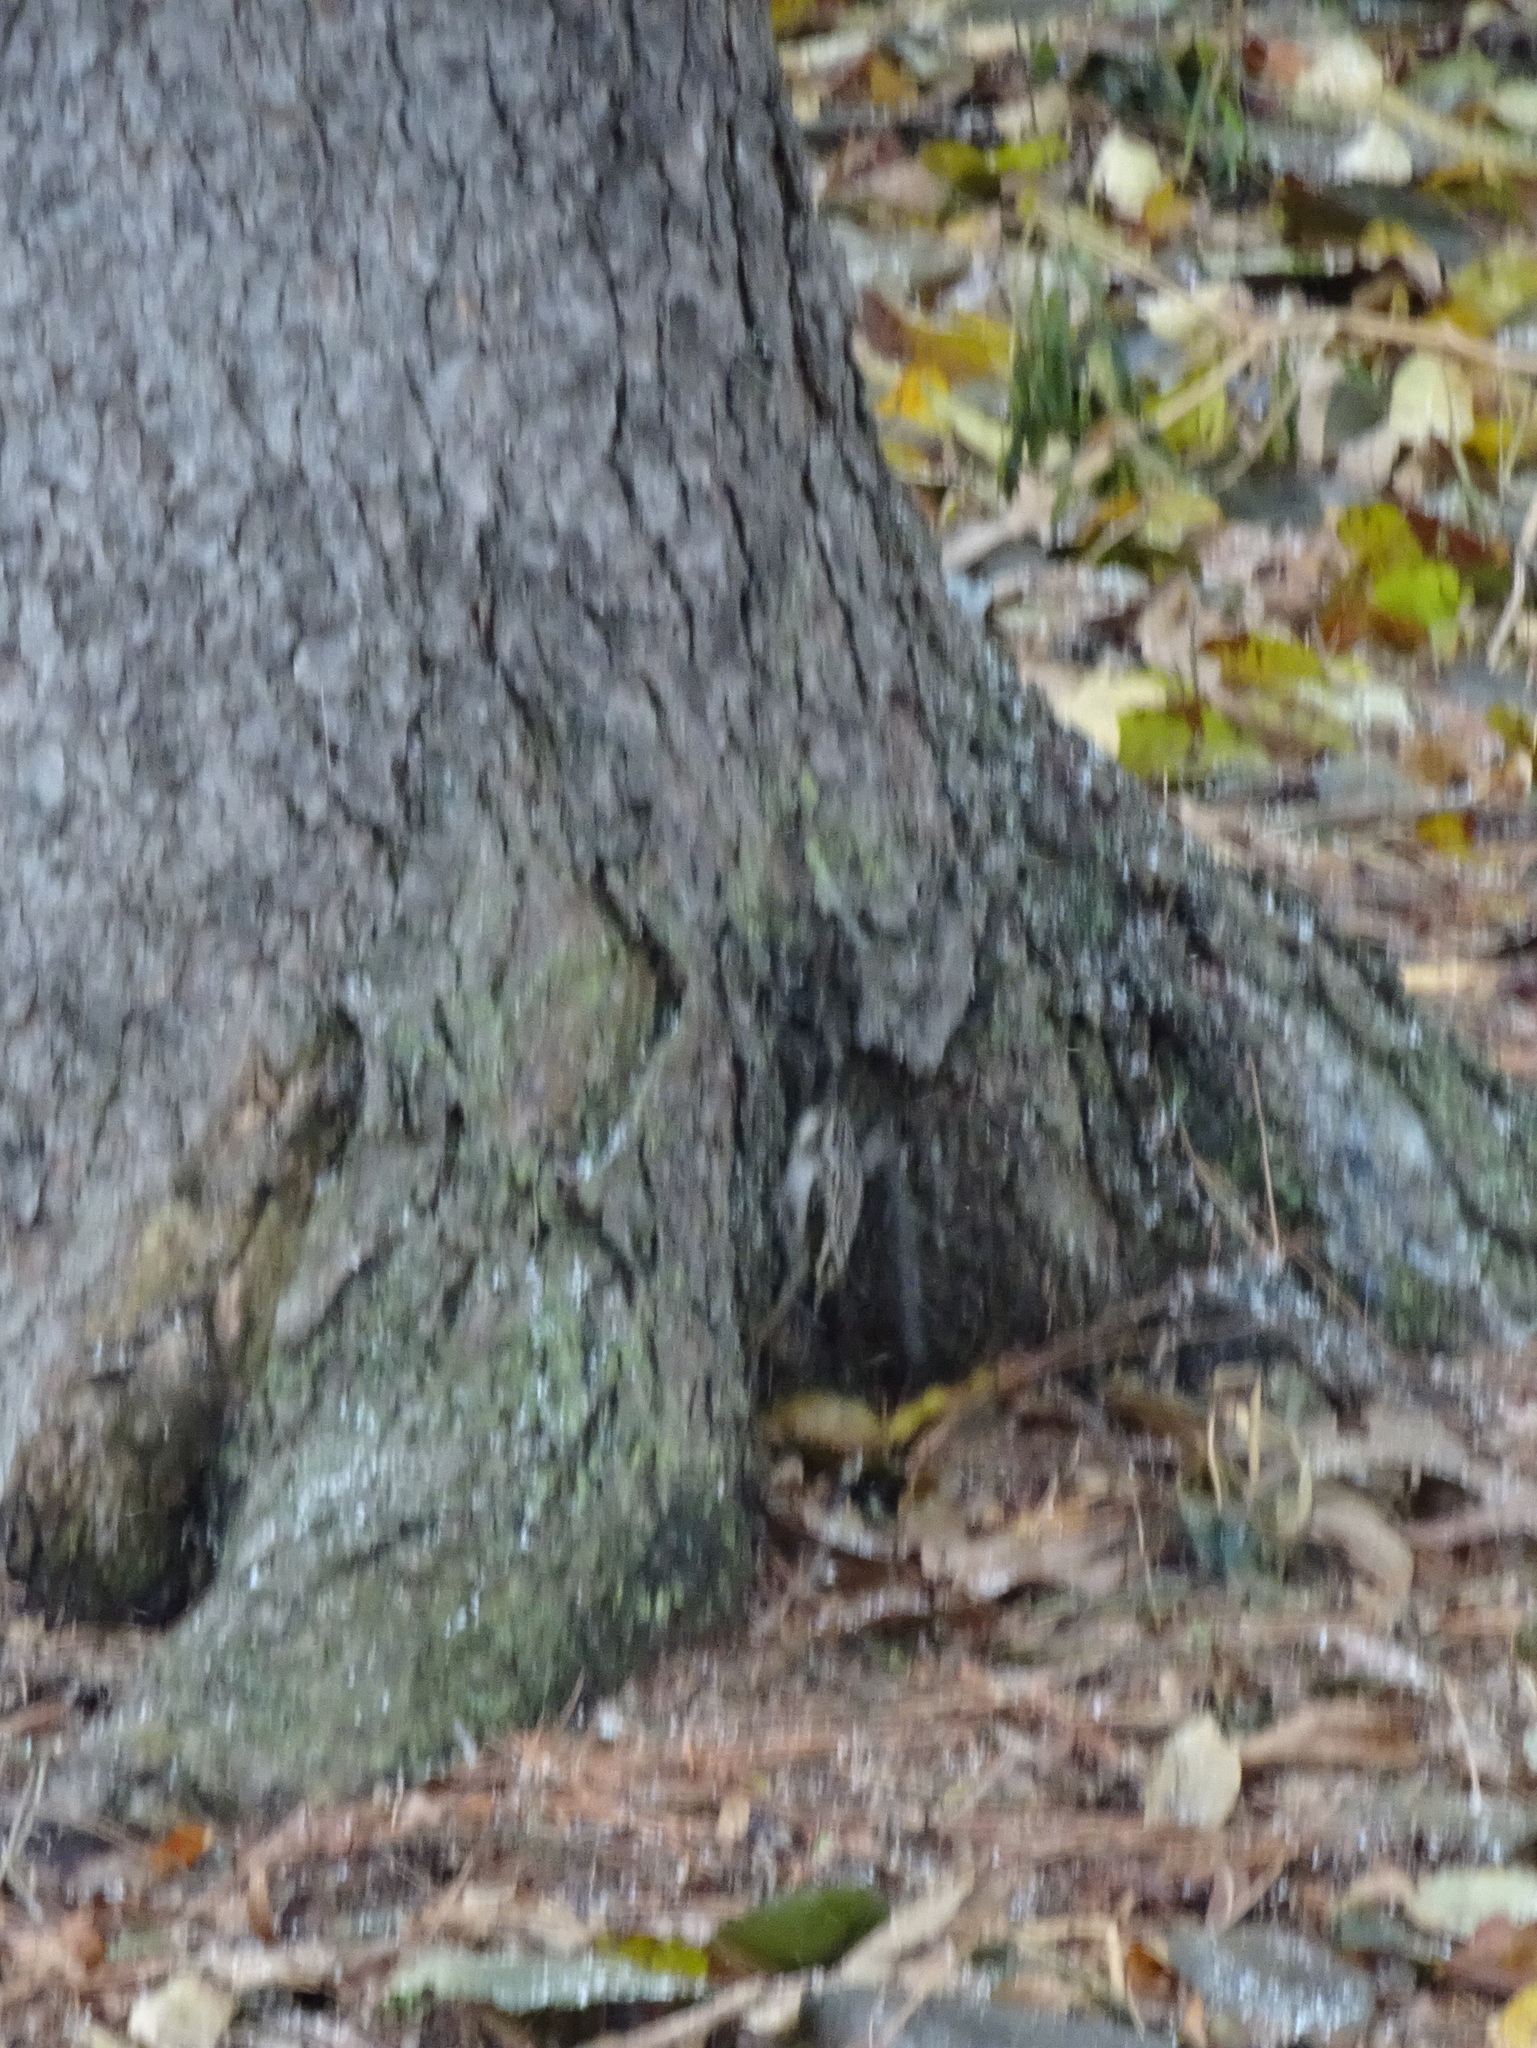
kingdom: Animalia
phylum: Chordata
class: Aves
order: Passeriformes
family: Certhiidae
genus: Certhia
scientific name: Certhia americana
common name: Brown creeper
